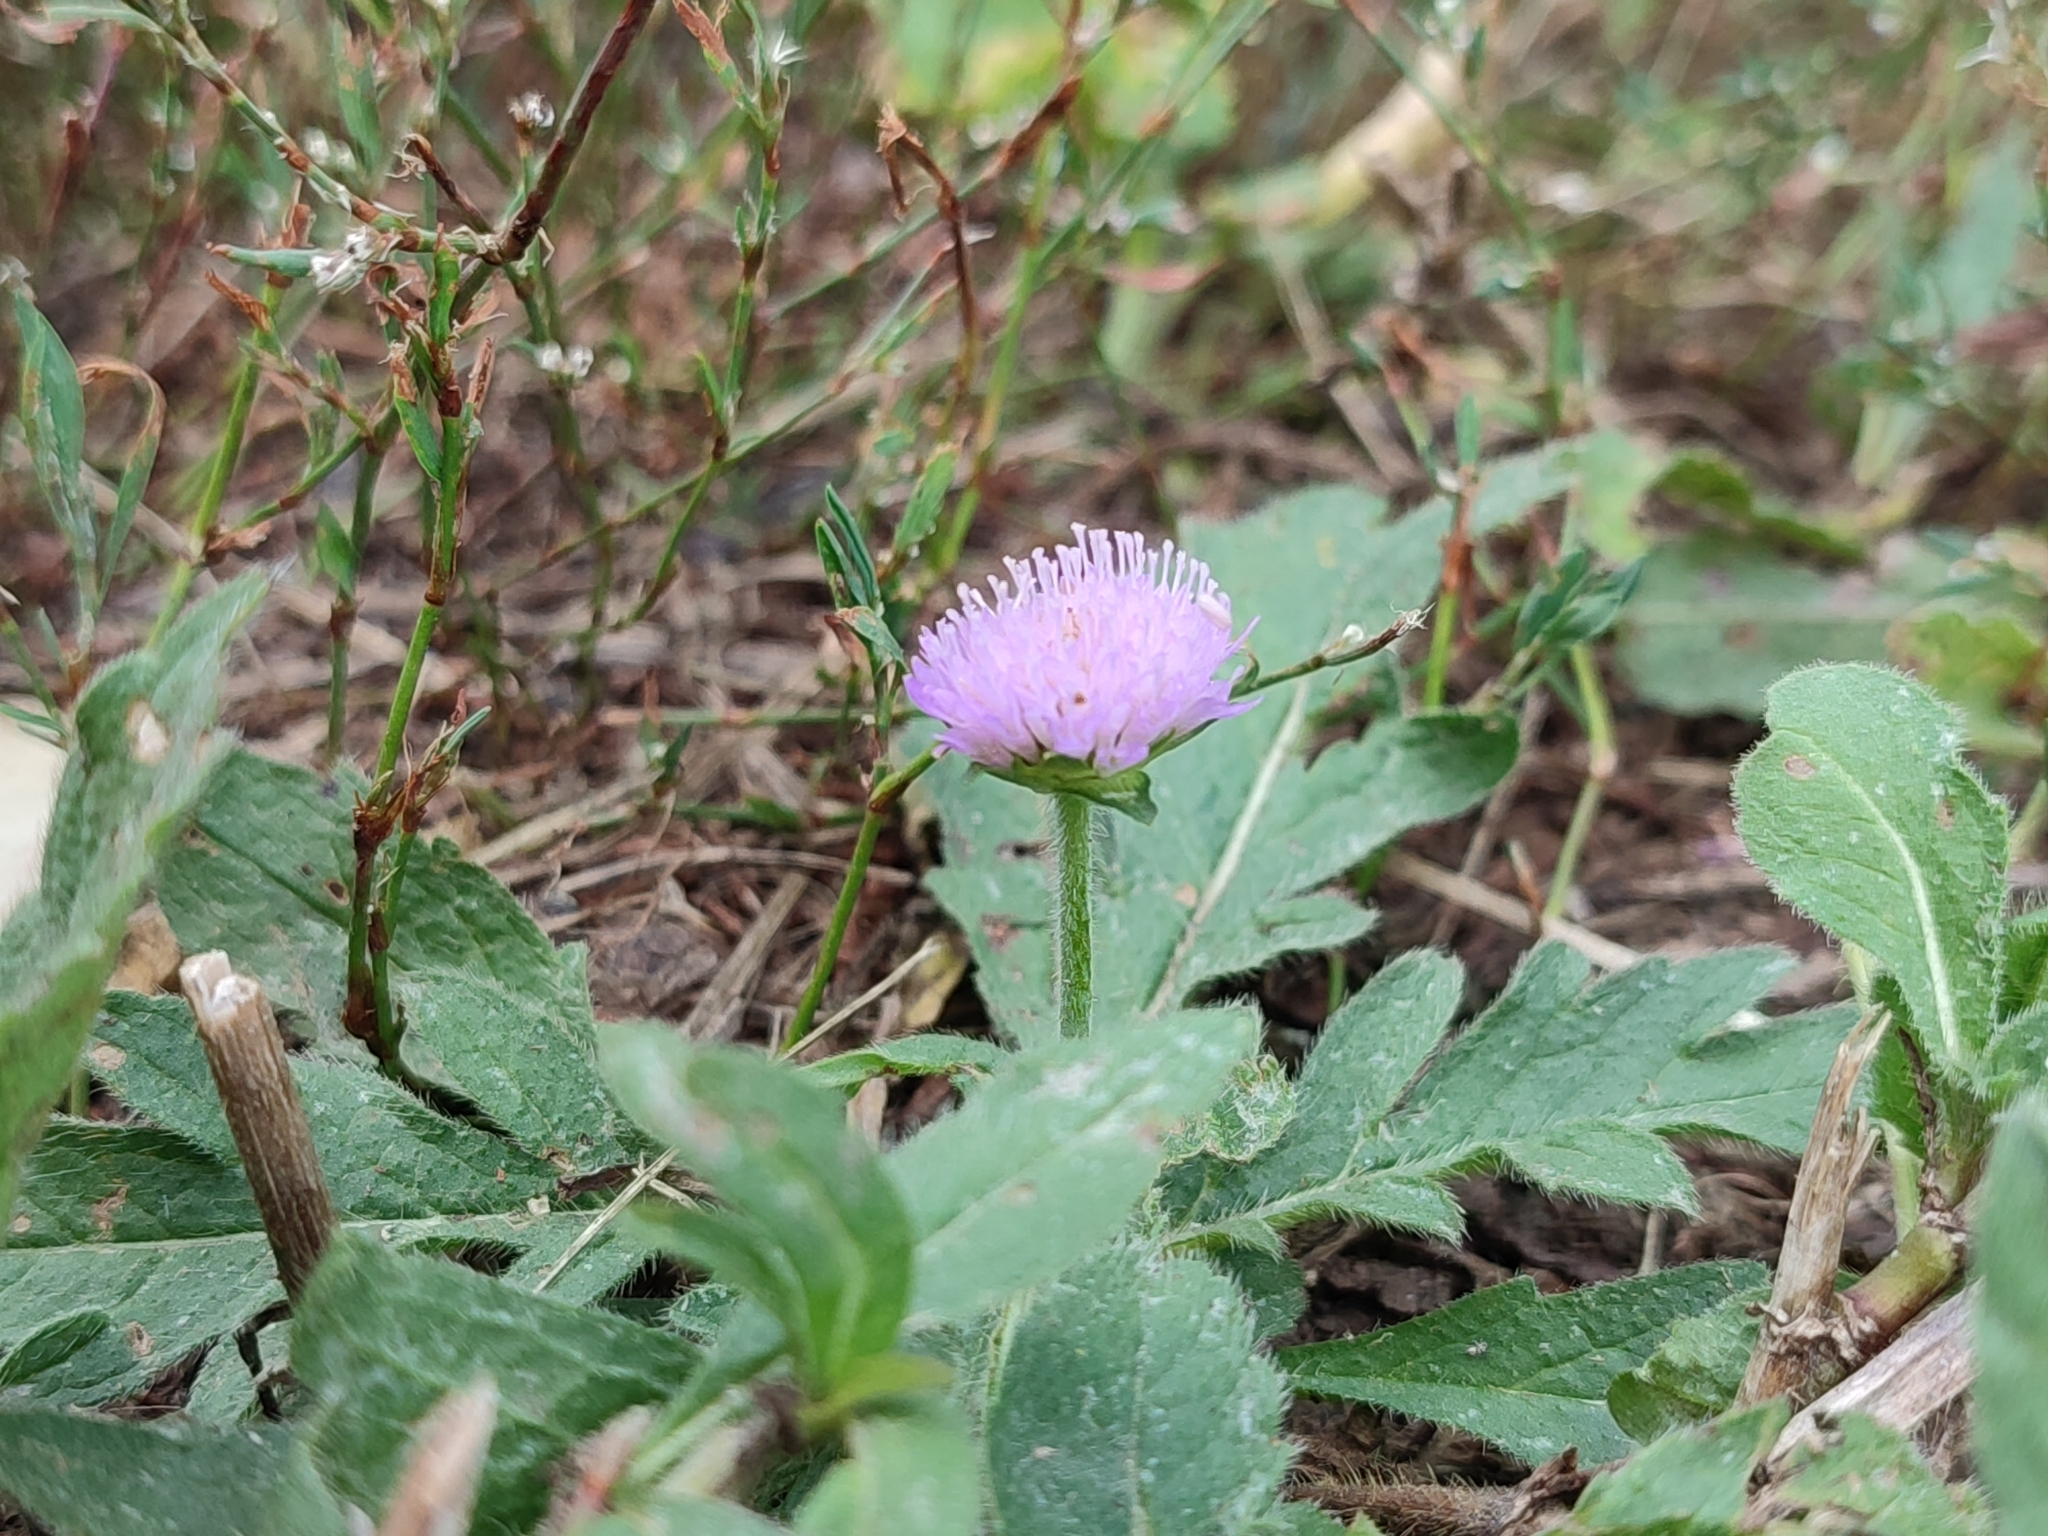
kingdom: Plantae
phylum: Tracheophyta
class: Magnoliopsida
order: Dipsacales
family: Caprifoliaceae
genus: Knautia
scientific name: Knautia arvensis
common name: Field scabiosa
